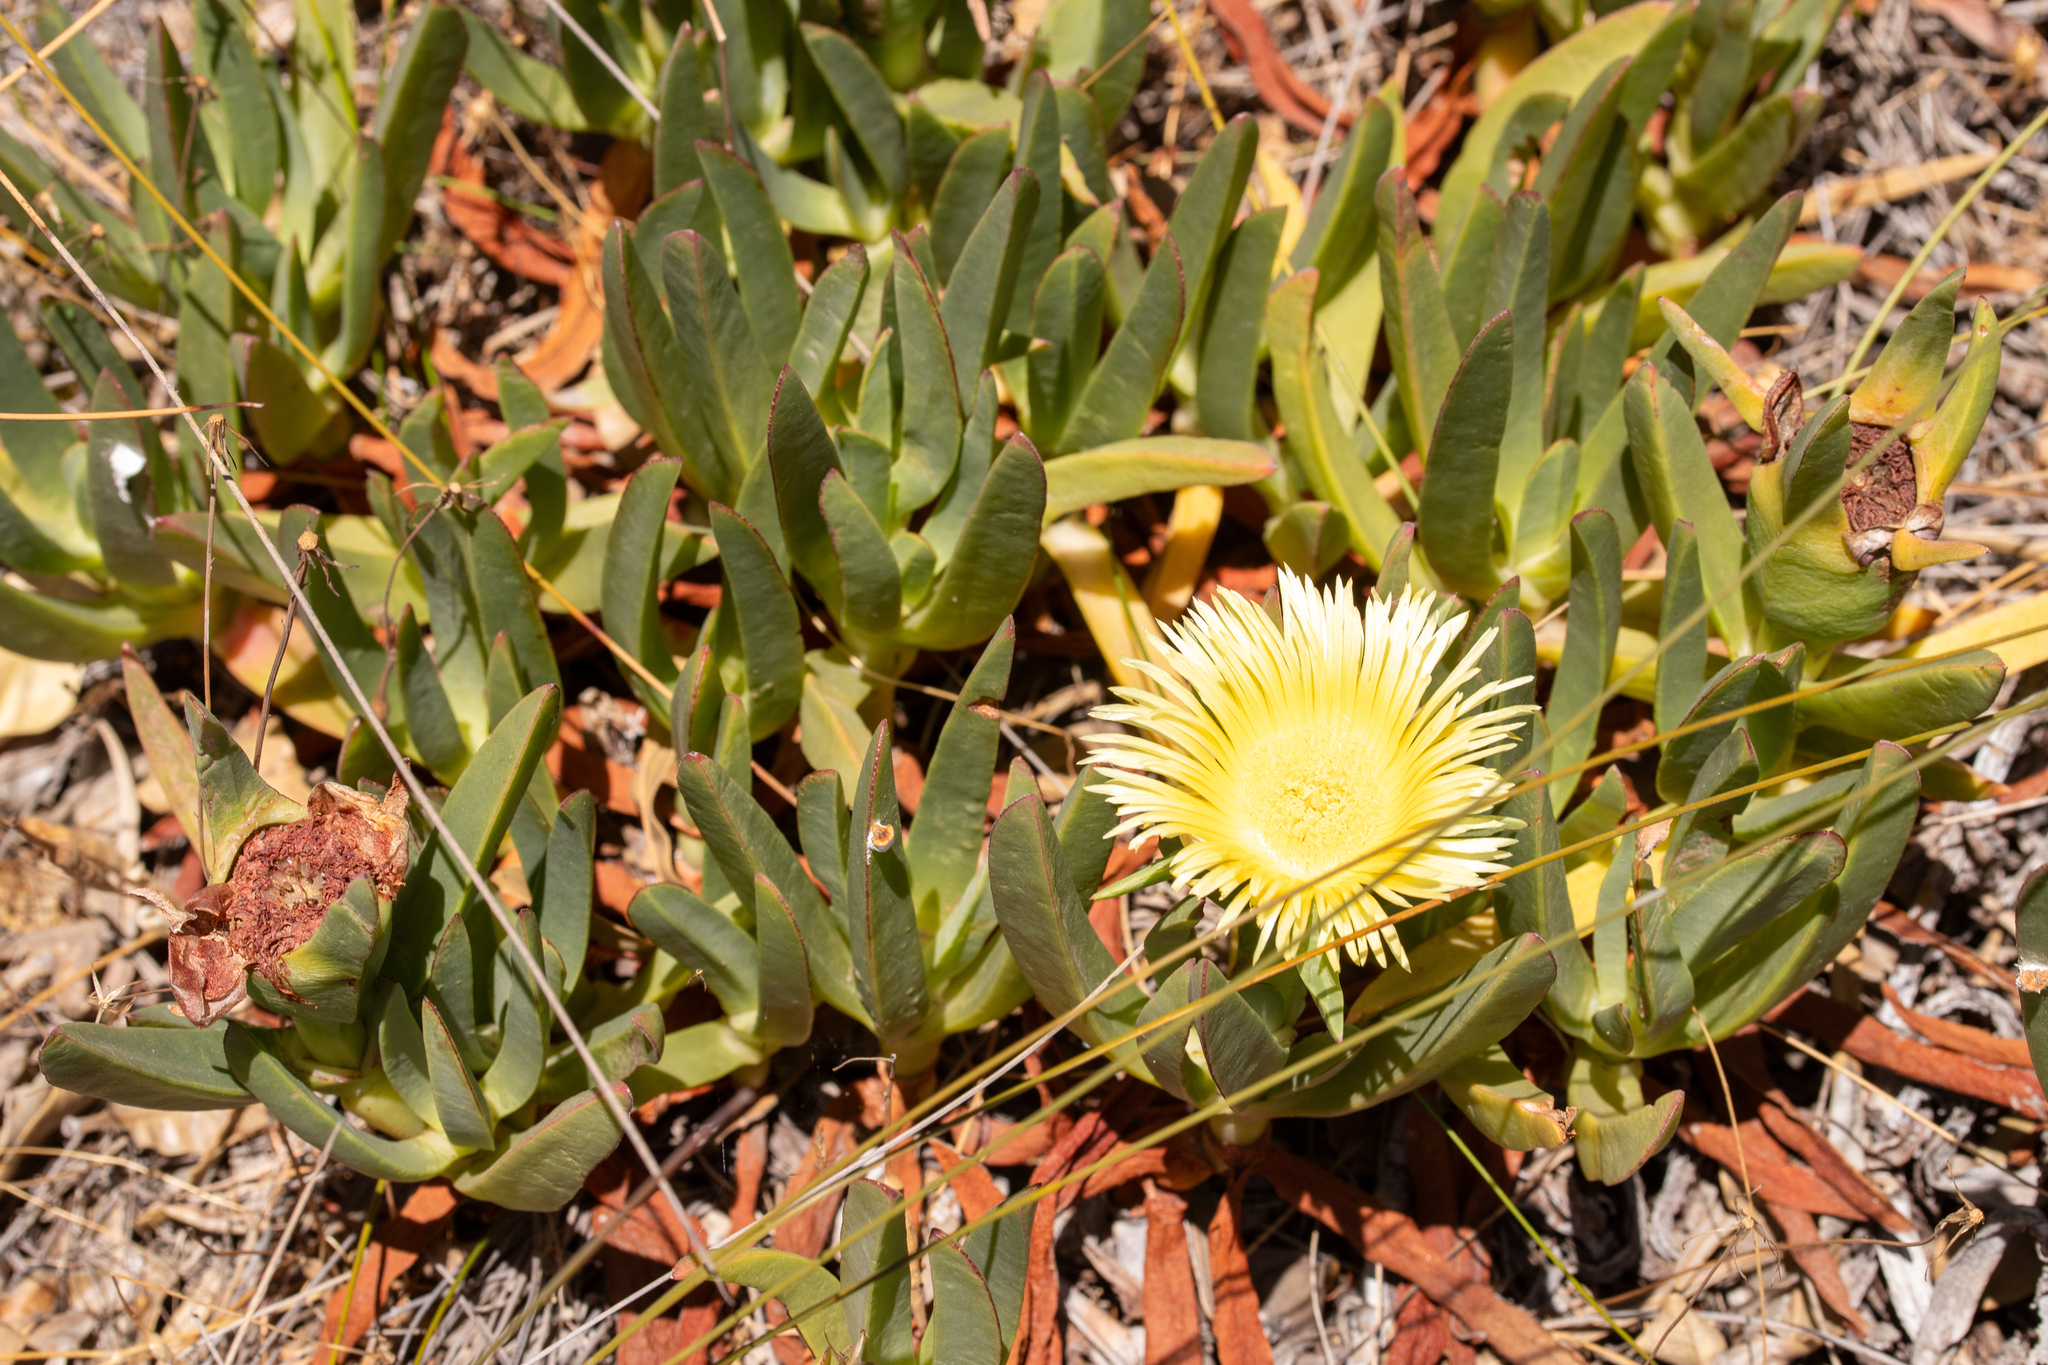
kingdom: Plantae
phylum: Tracheophyta
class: Magnoliopsida
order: Caryophyllales
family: Aizoaceae
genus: Carpobrotus
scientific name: Carpobrotus edulis
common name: Hottentot-fig
